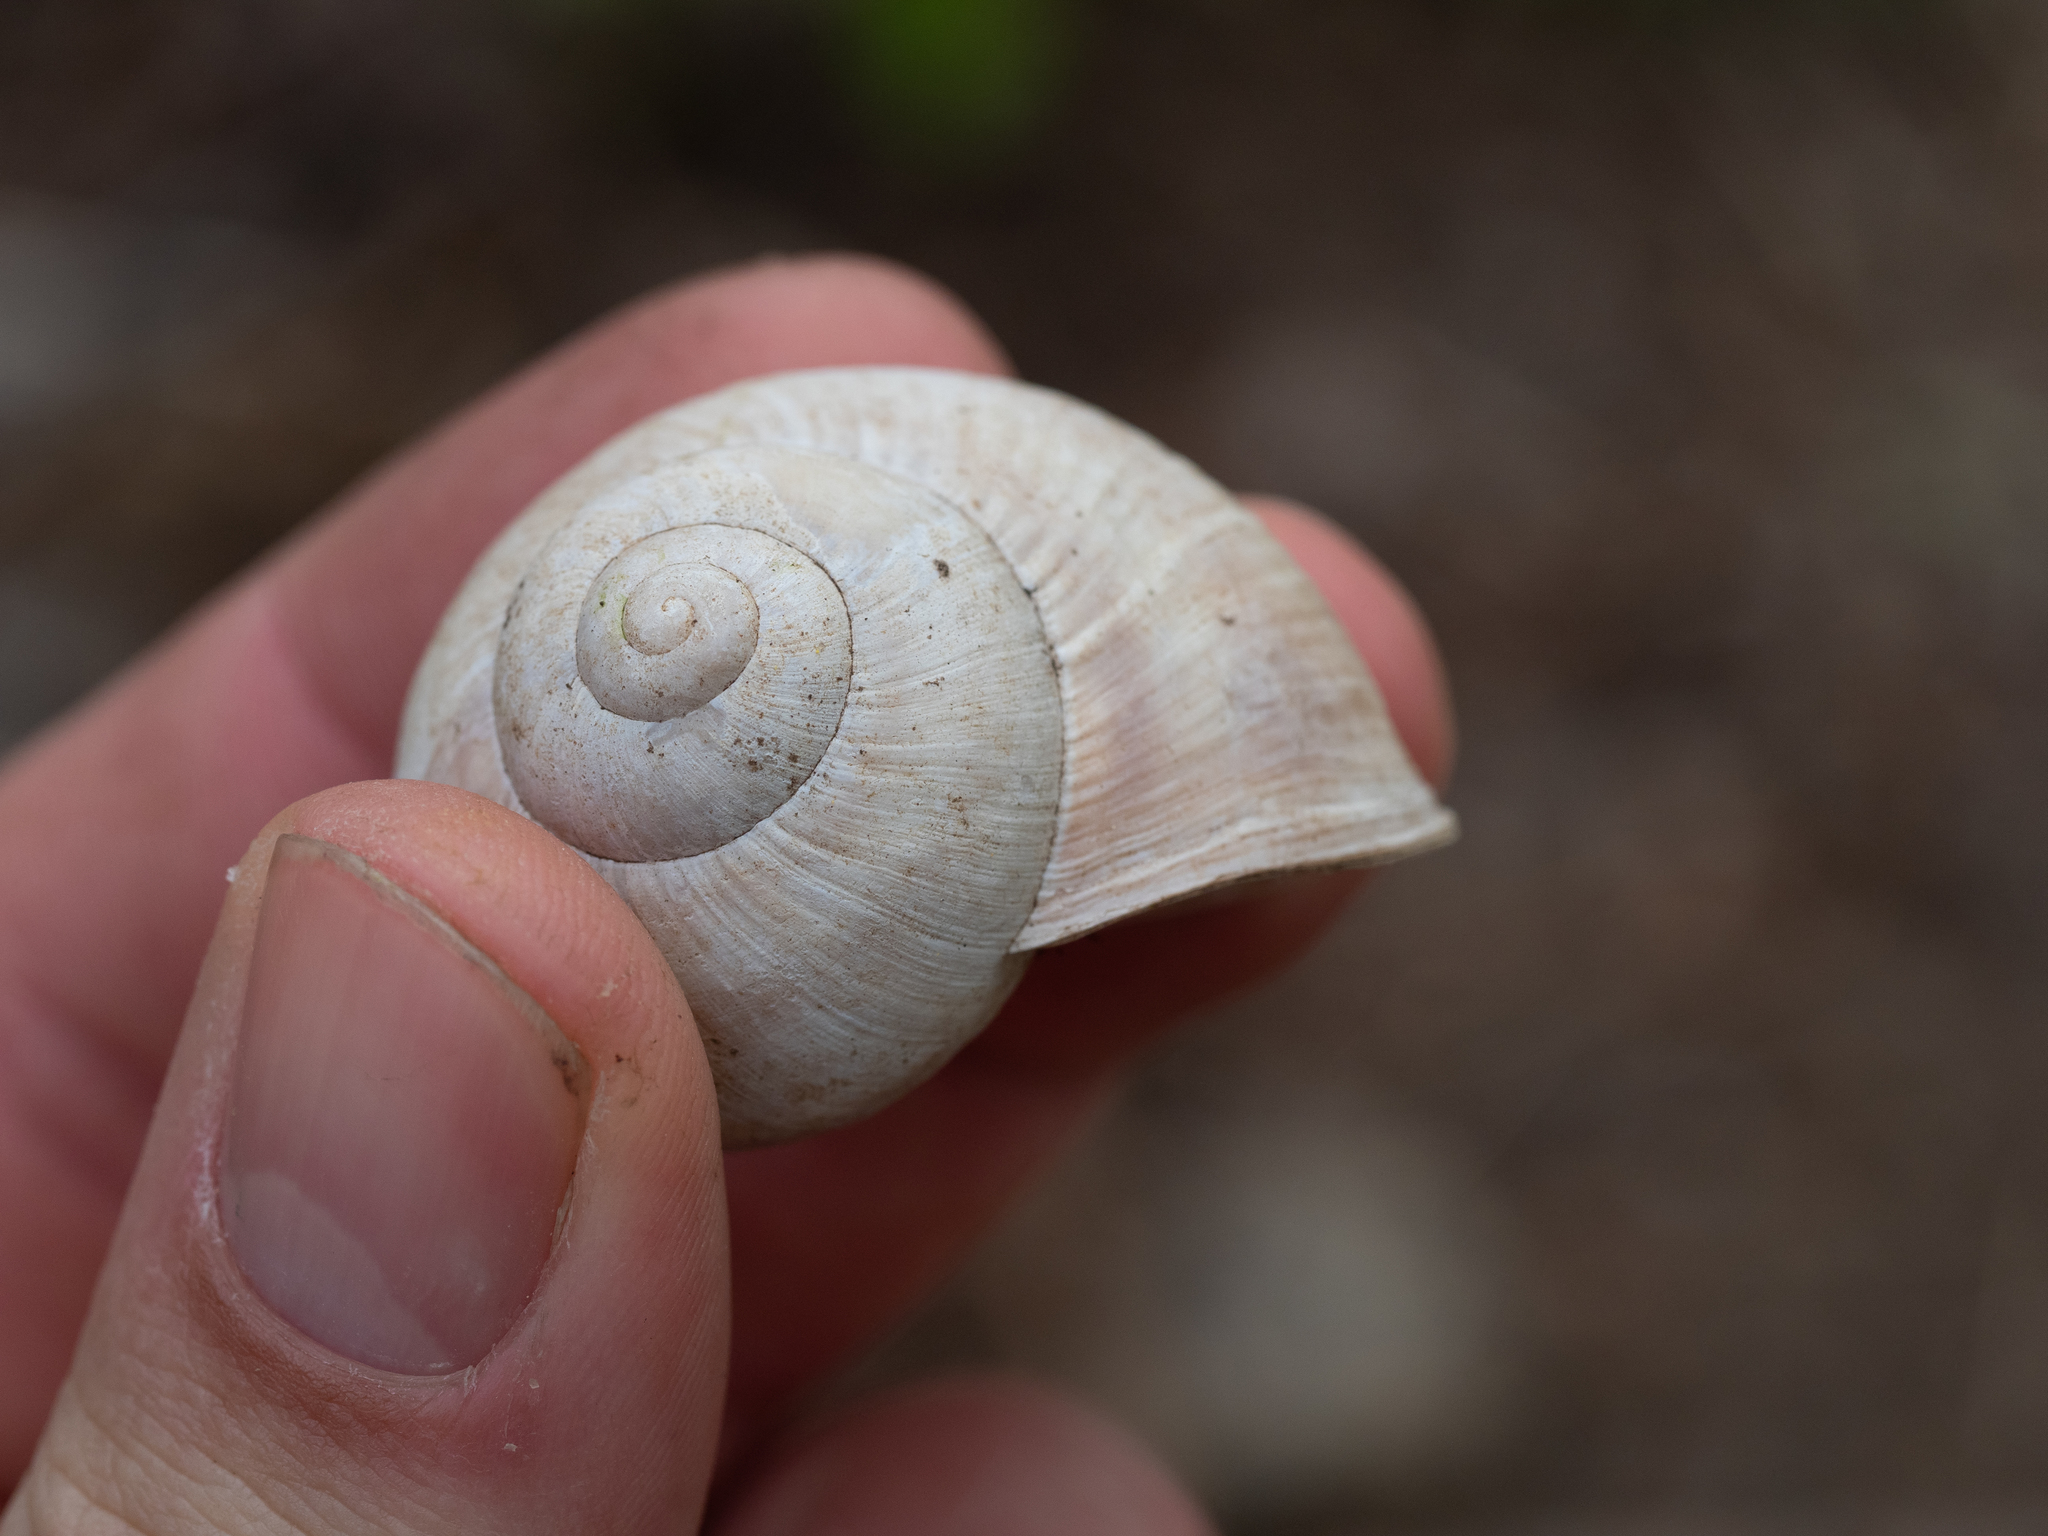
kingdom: Animalia
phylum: Mollusca
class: Gastropoda
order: Stylommatophora
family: Helicidae
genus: Helix
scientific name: Helix pomatia
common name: Roman snail
